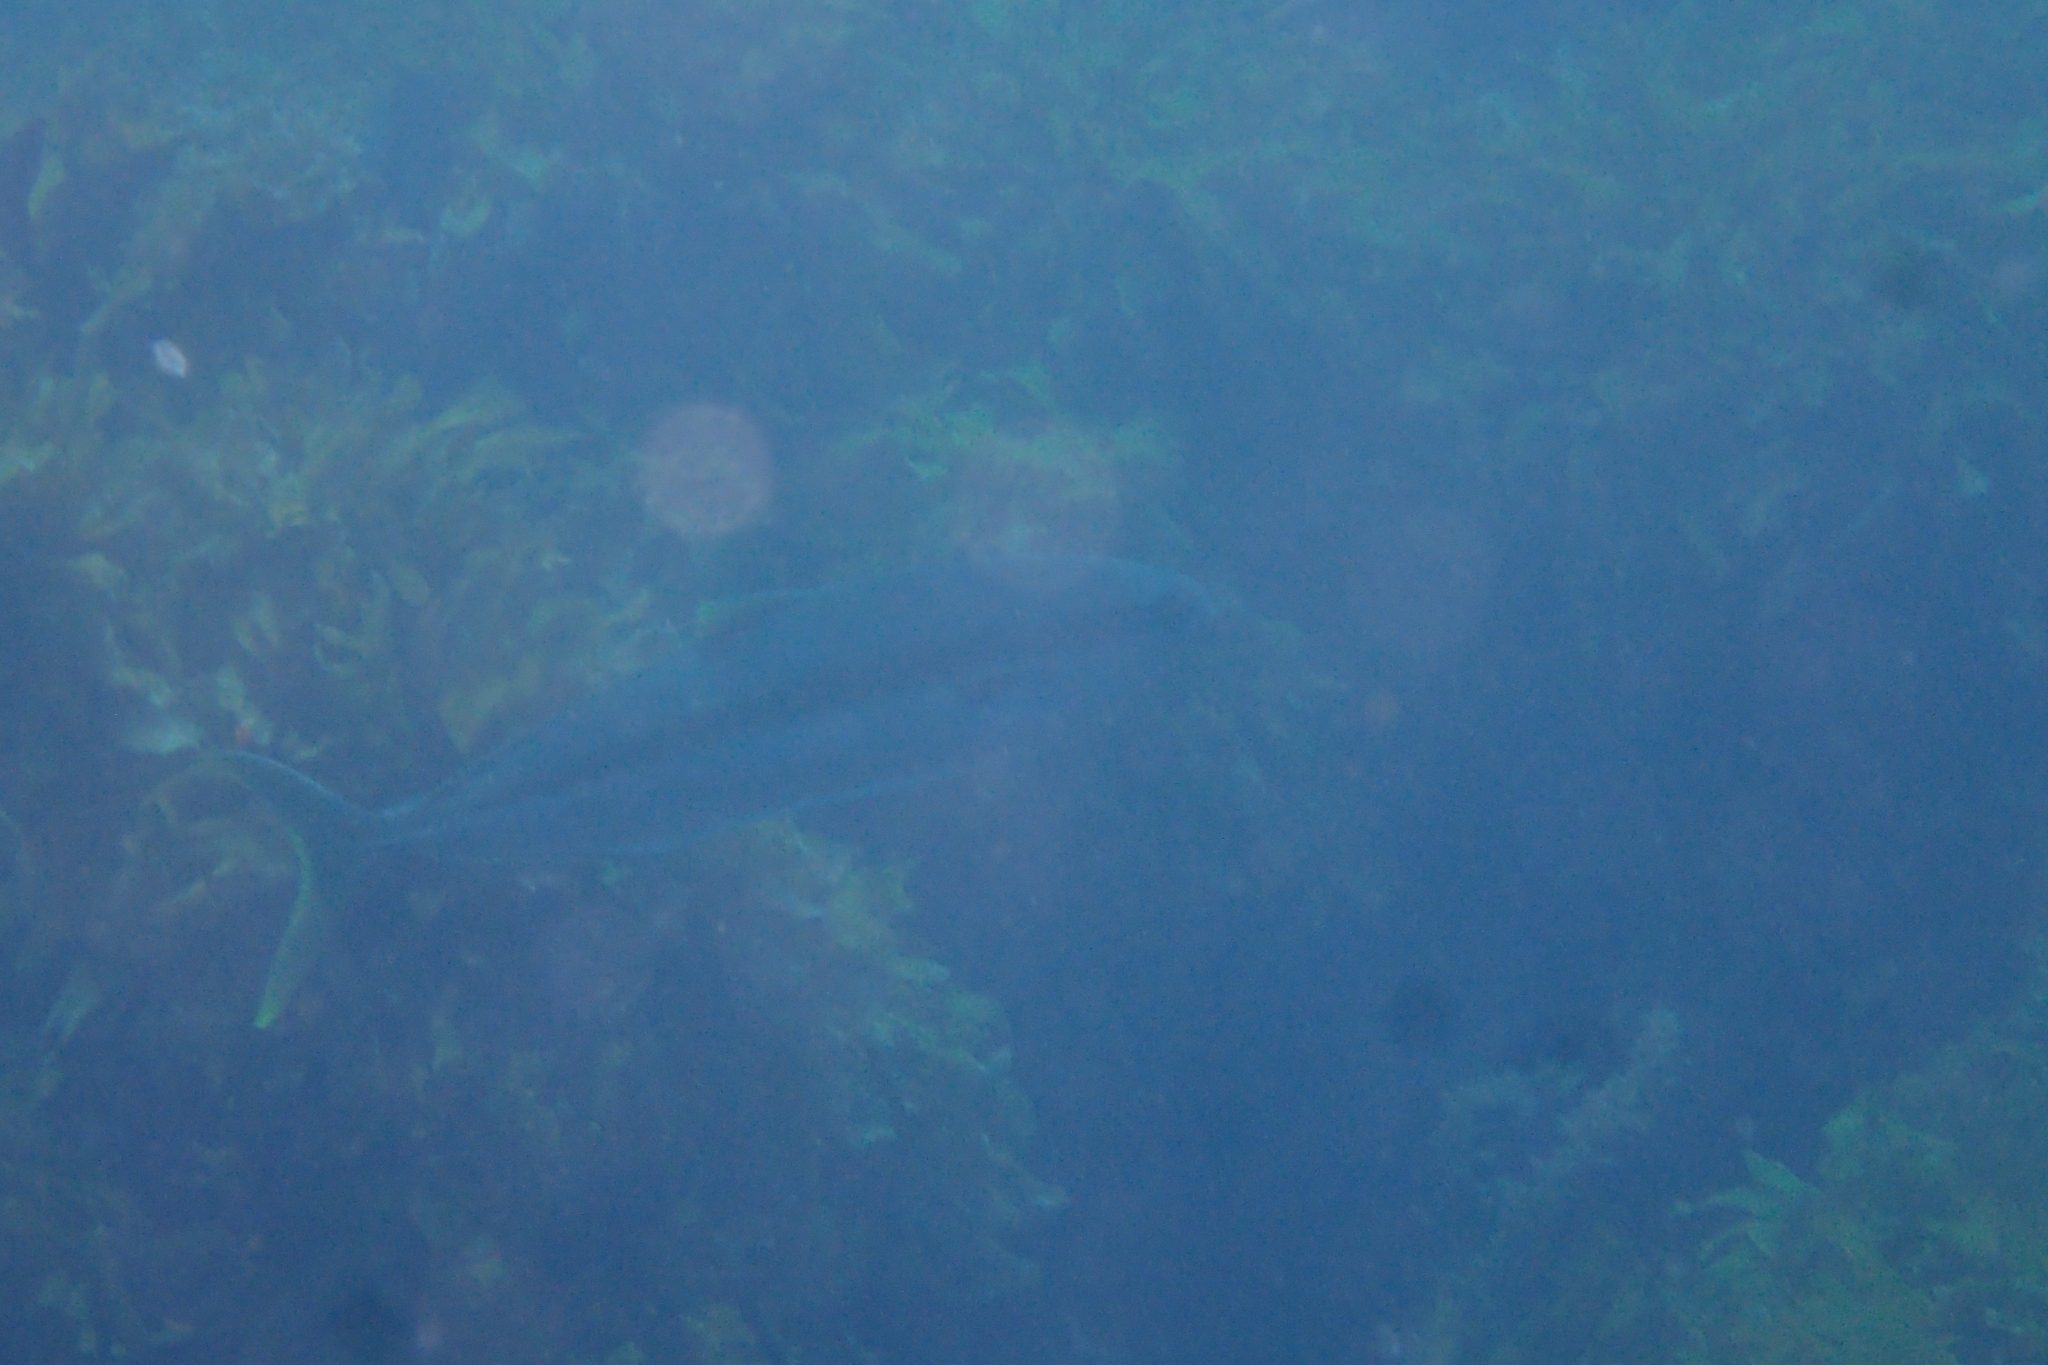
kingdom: Animalia
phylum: Chordata
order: Perciformes
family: Carangidae
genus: Seriola
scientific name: Seriola lalandi
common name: Yellowtail kingfish
